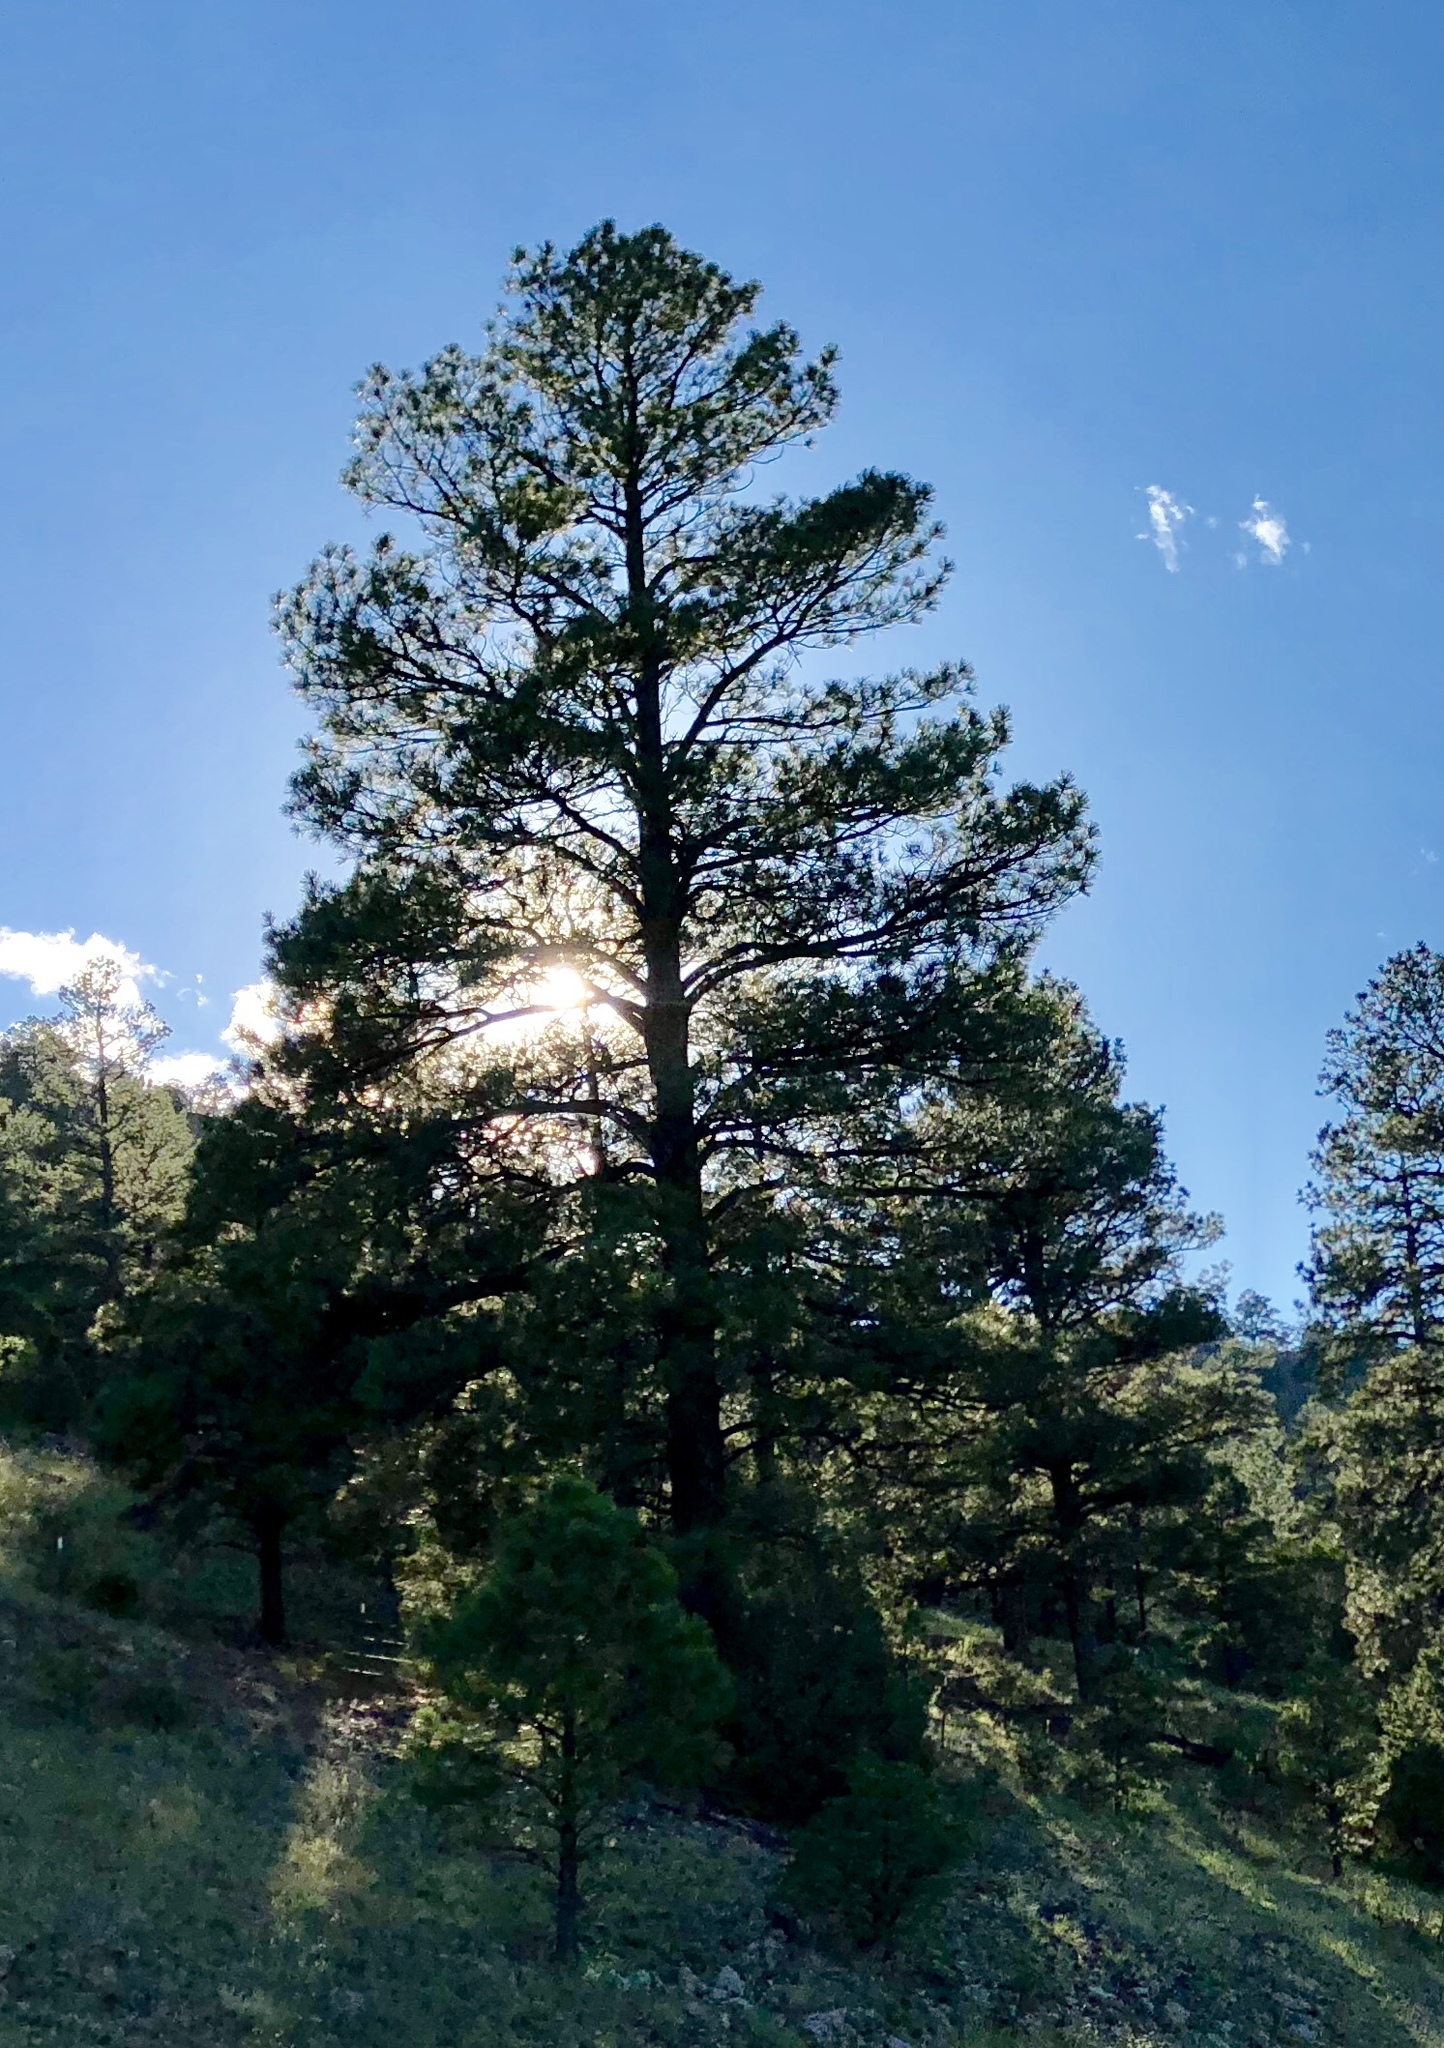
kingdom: Plantae
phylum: Tracheophyta
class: Pinopsida
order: Pinales
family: Pinaceae
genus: Pinus
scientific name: Pinus ponderosa
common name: Western yellow-pine
